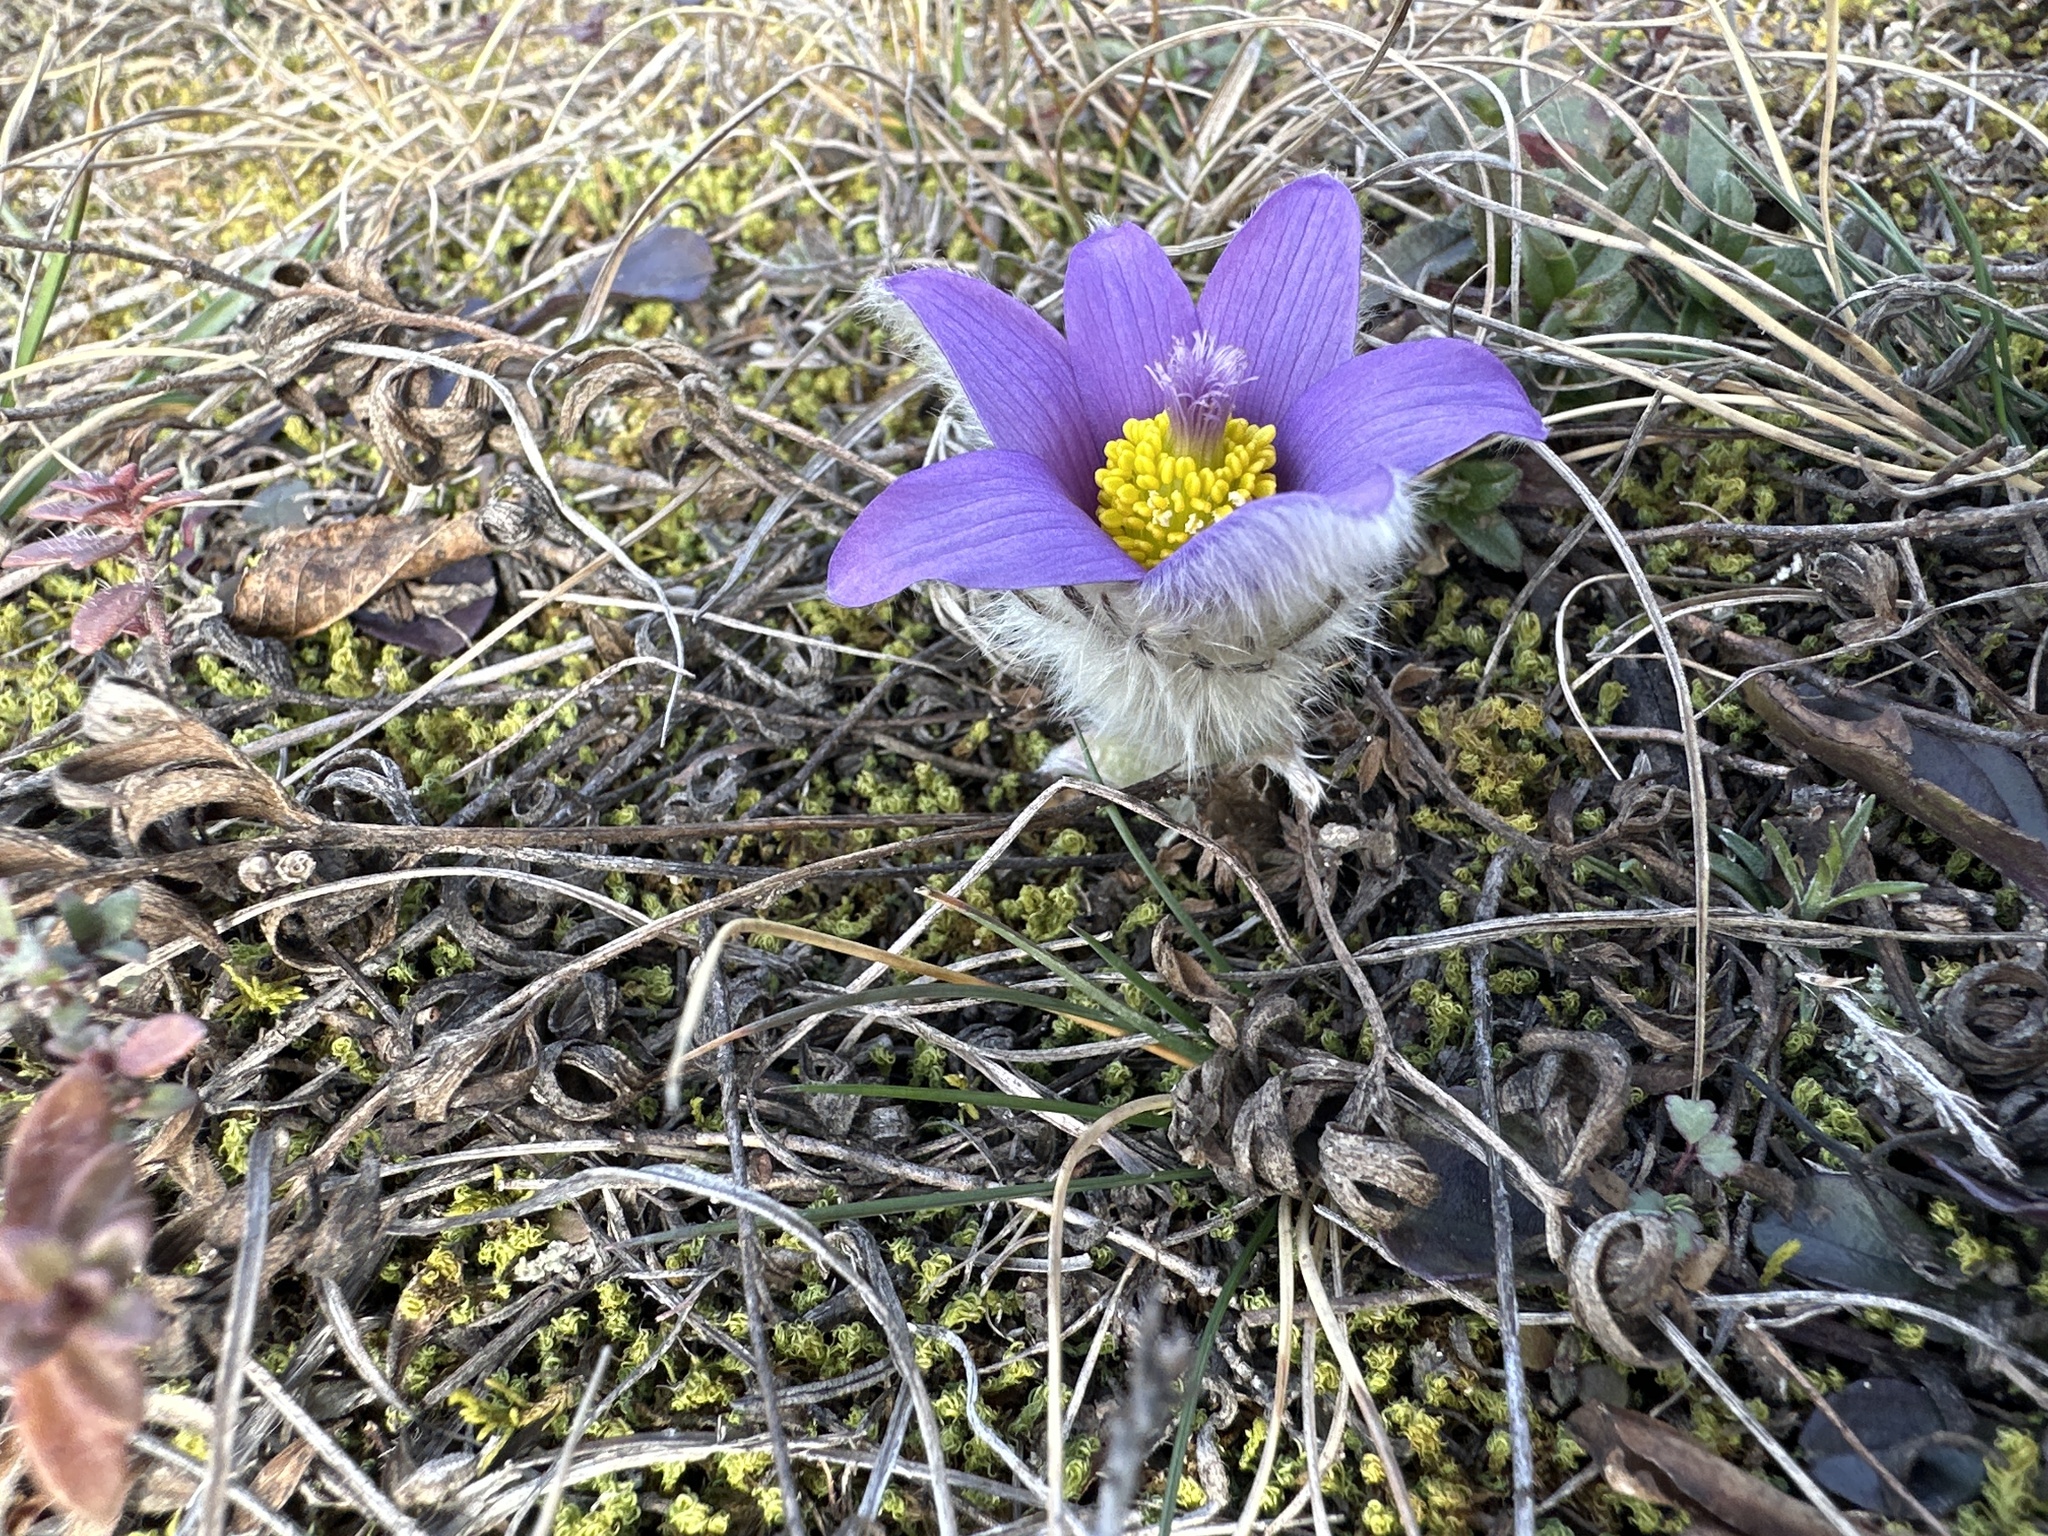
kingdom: Plantae
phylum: Tracheophyta
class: Magnoliopsida
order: Ranunculales
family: Ranunculaceae
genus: Pulsatilla
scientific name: Pulsatilla grandis
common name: Greater pasque flower
